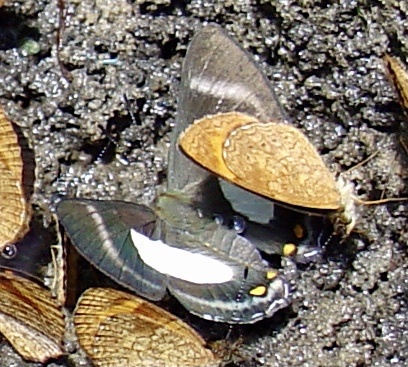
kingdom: Animalia
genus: Siseme
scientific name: Siseme alectryo
